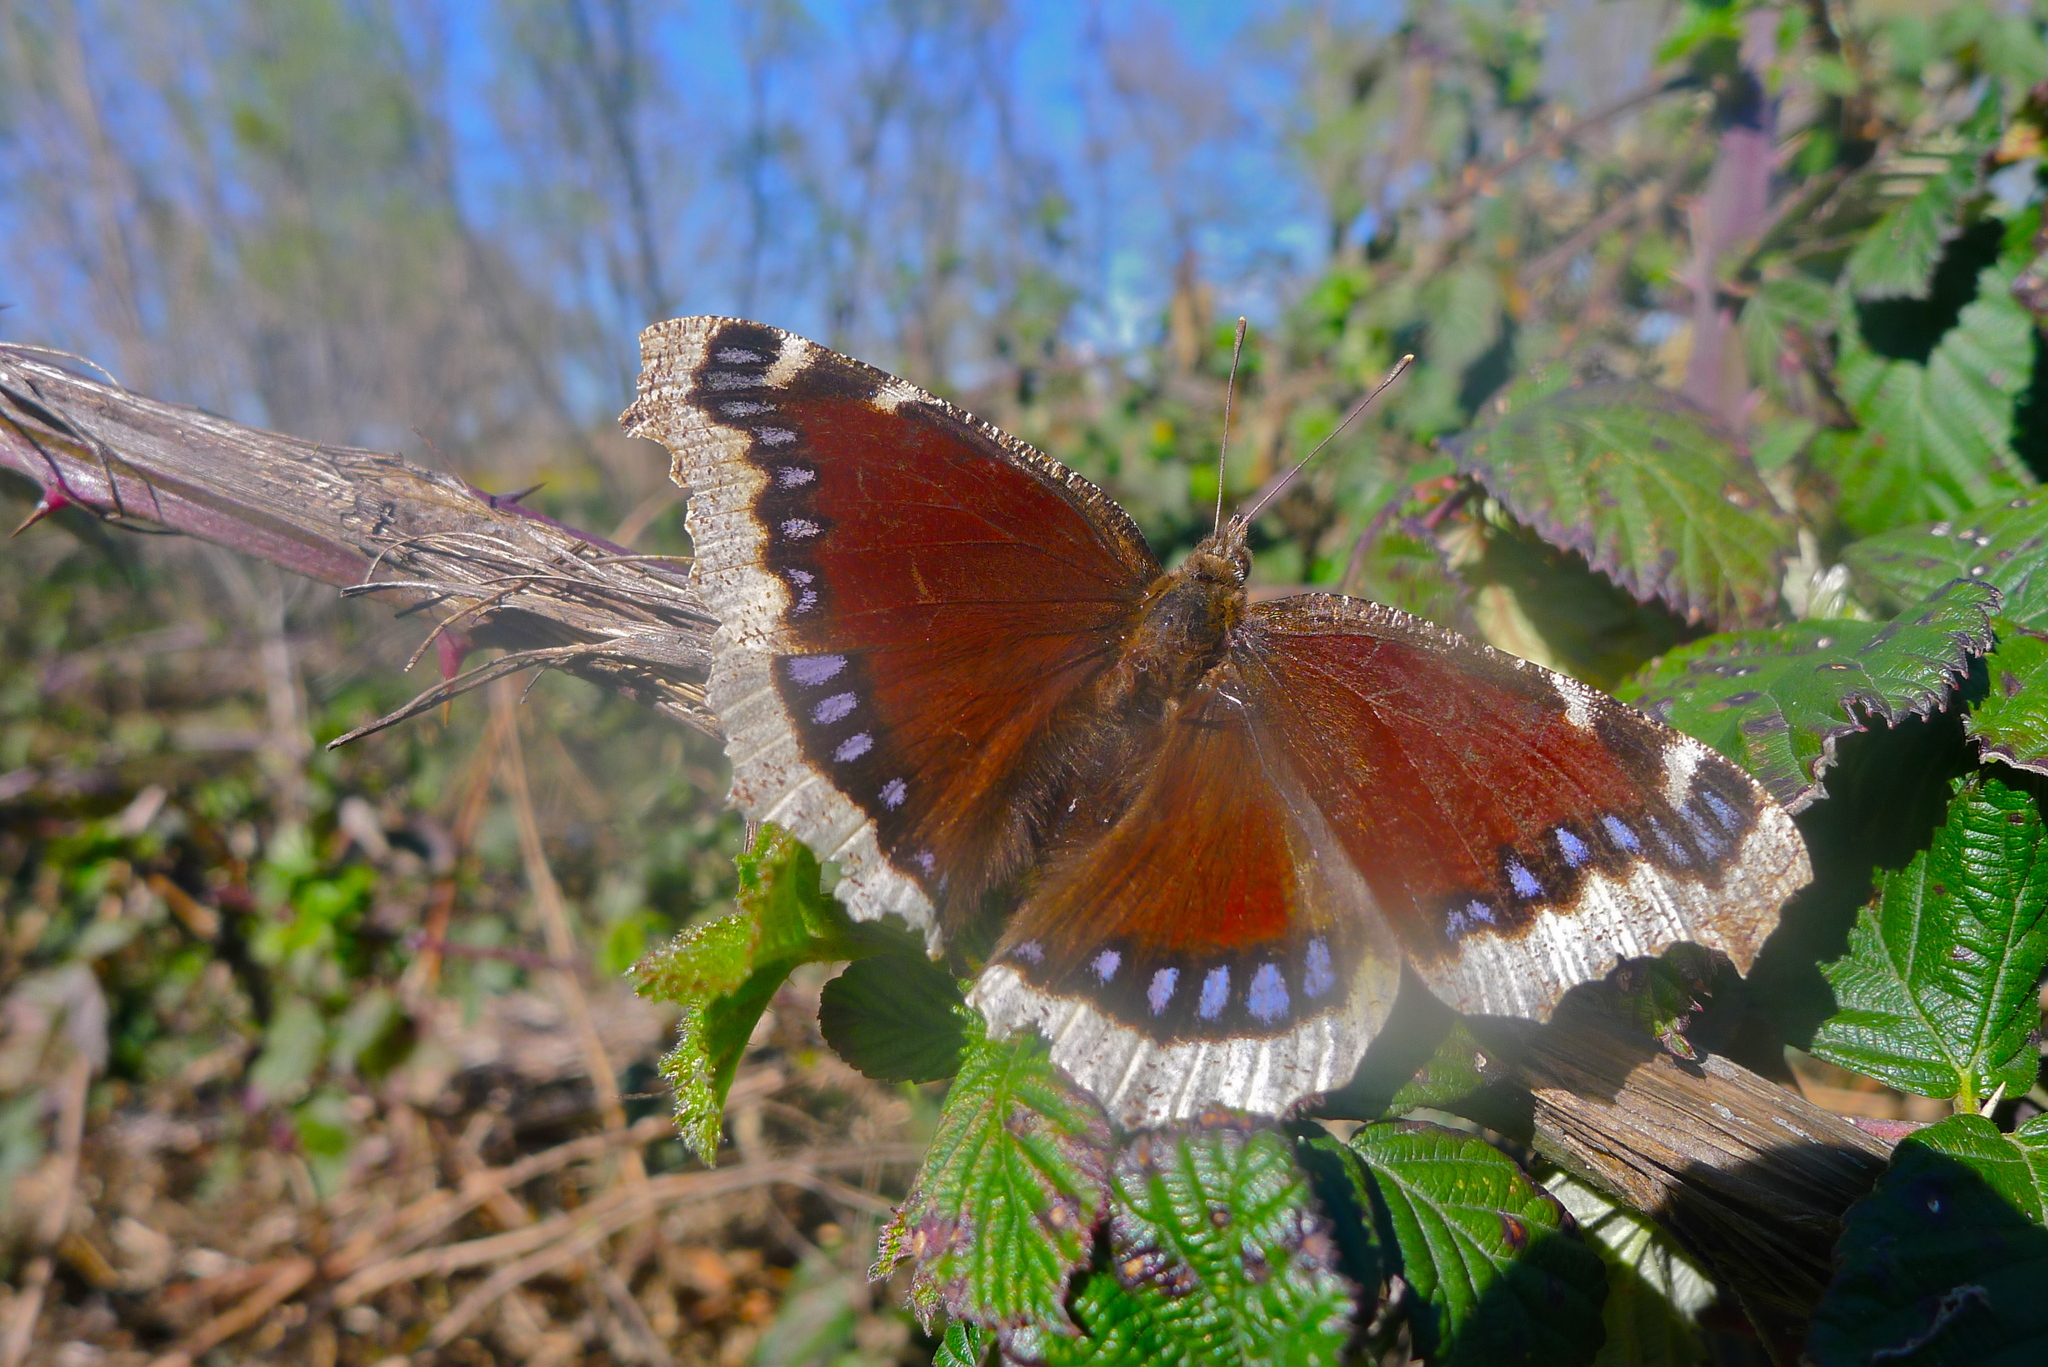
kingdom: Animalia
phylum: Arthropoda
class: Insecta
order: Lepidoptera
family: Nymphalidae
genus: Nymphalis
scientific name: Nymphalis antiopa
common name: Camberwell beauty
